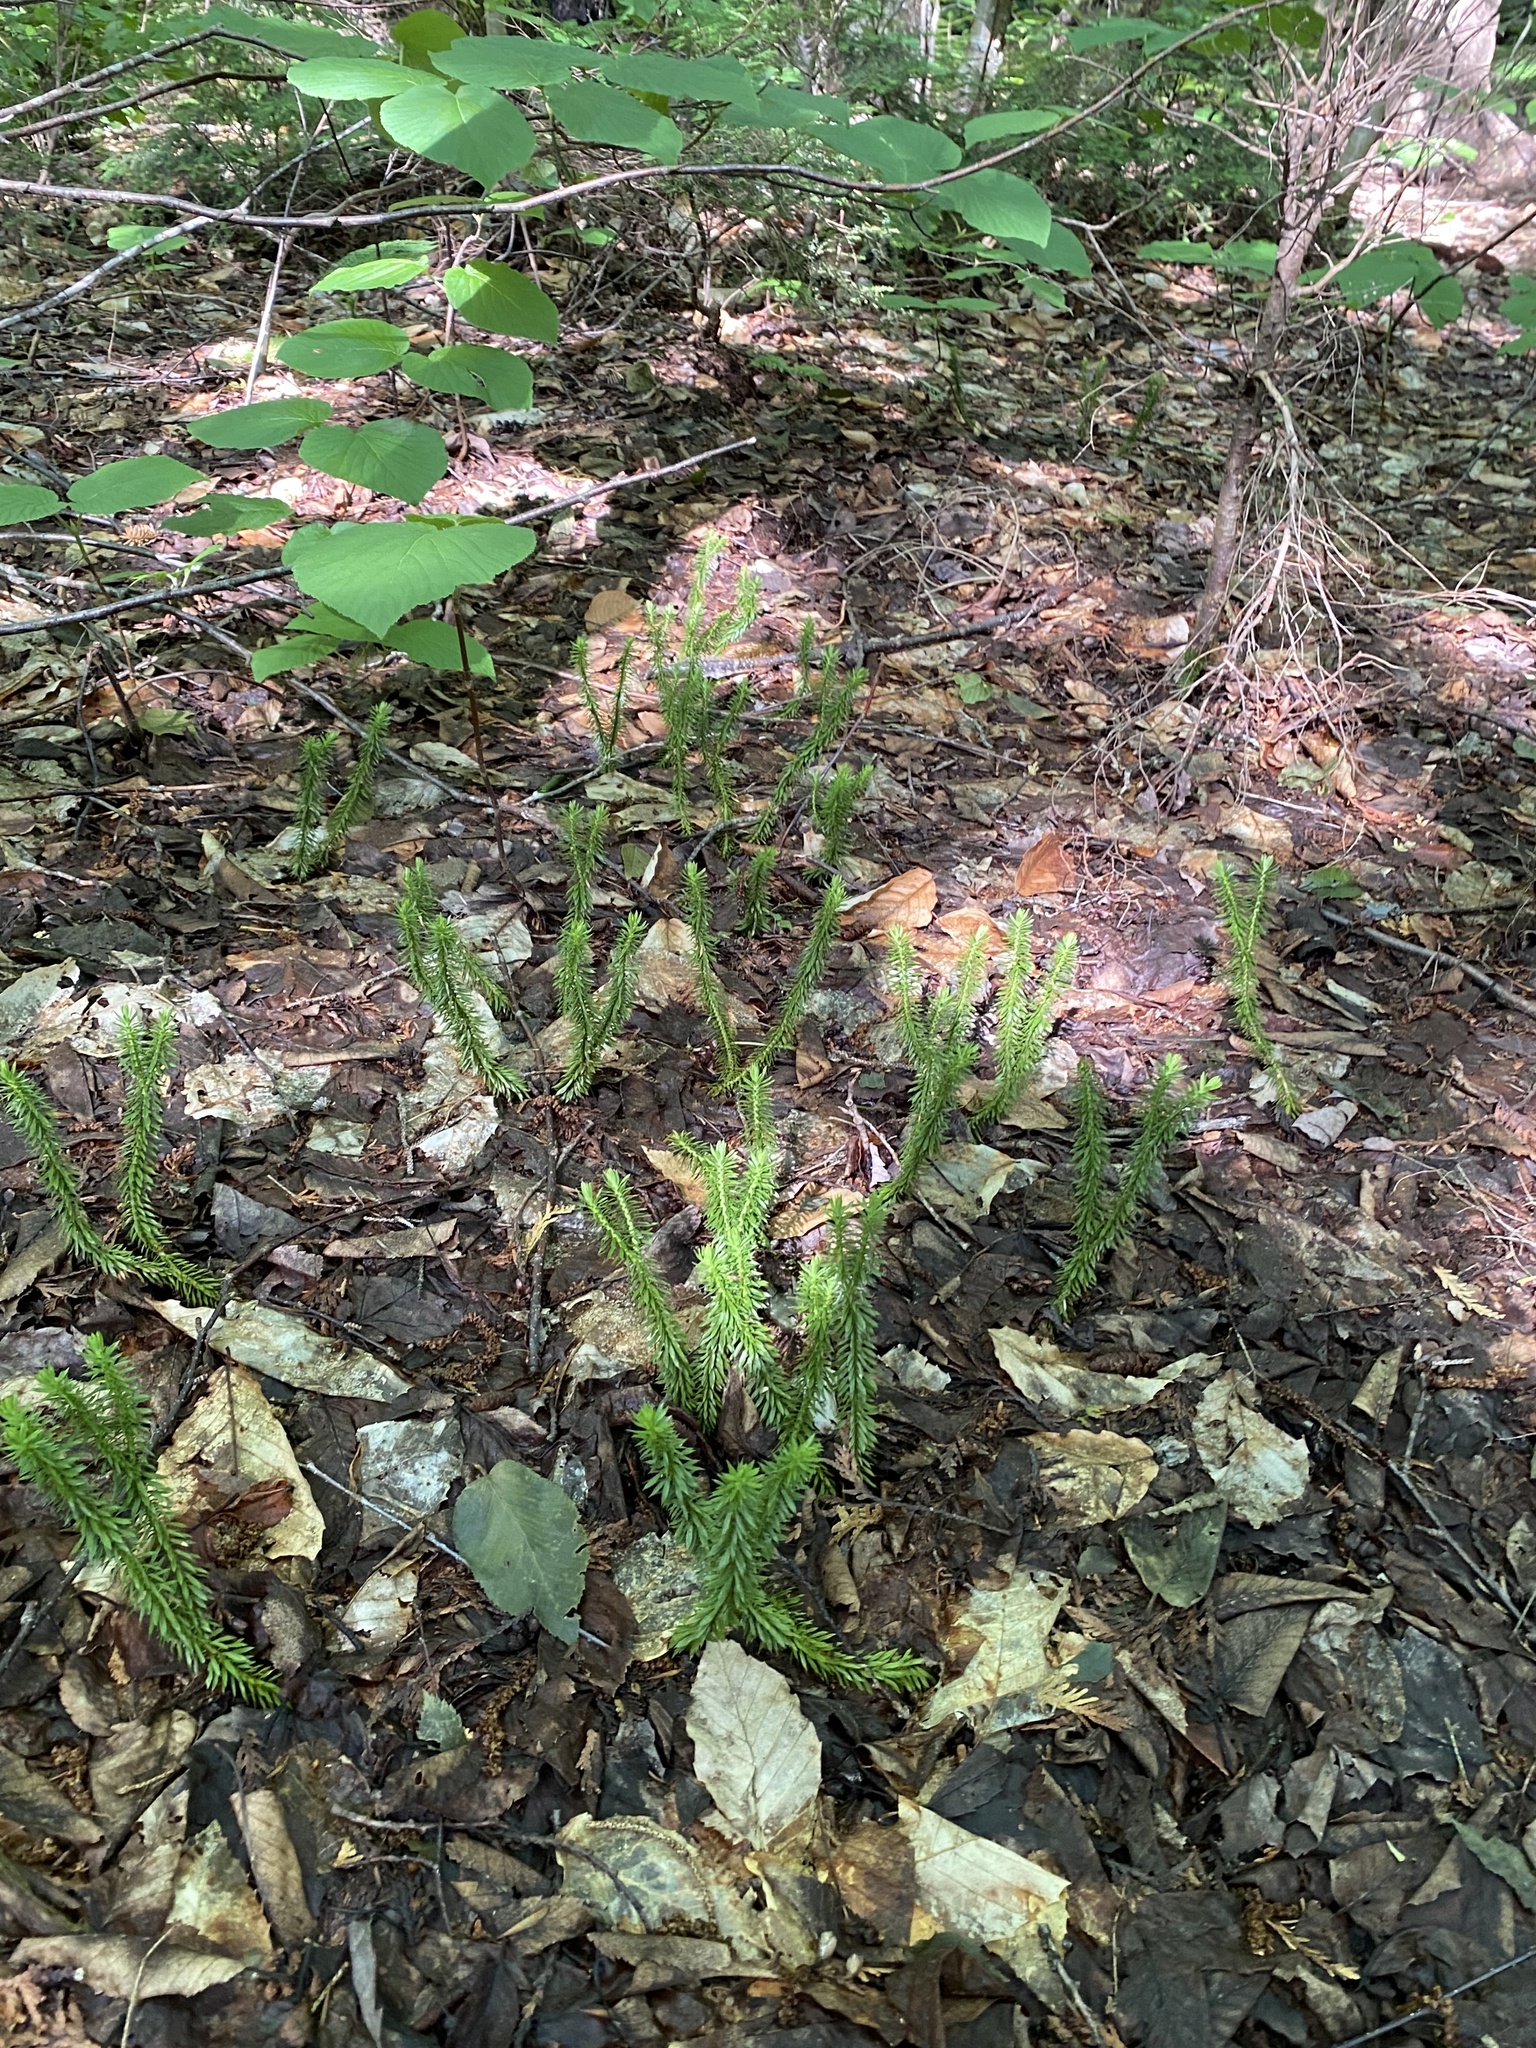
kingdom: Plantae
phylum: Tracheophyta
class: Lycopodiopsida
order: Lycopodiales
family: Lycopodiaceae
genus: Huperzia
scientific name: Huperzia lucidula
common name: Shining clubmoss
